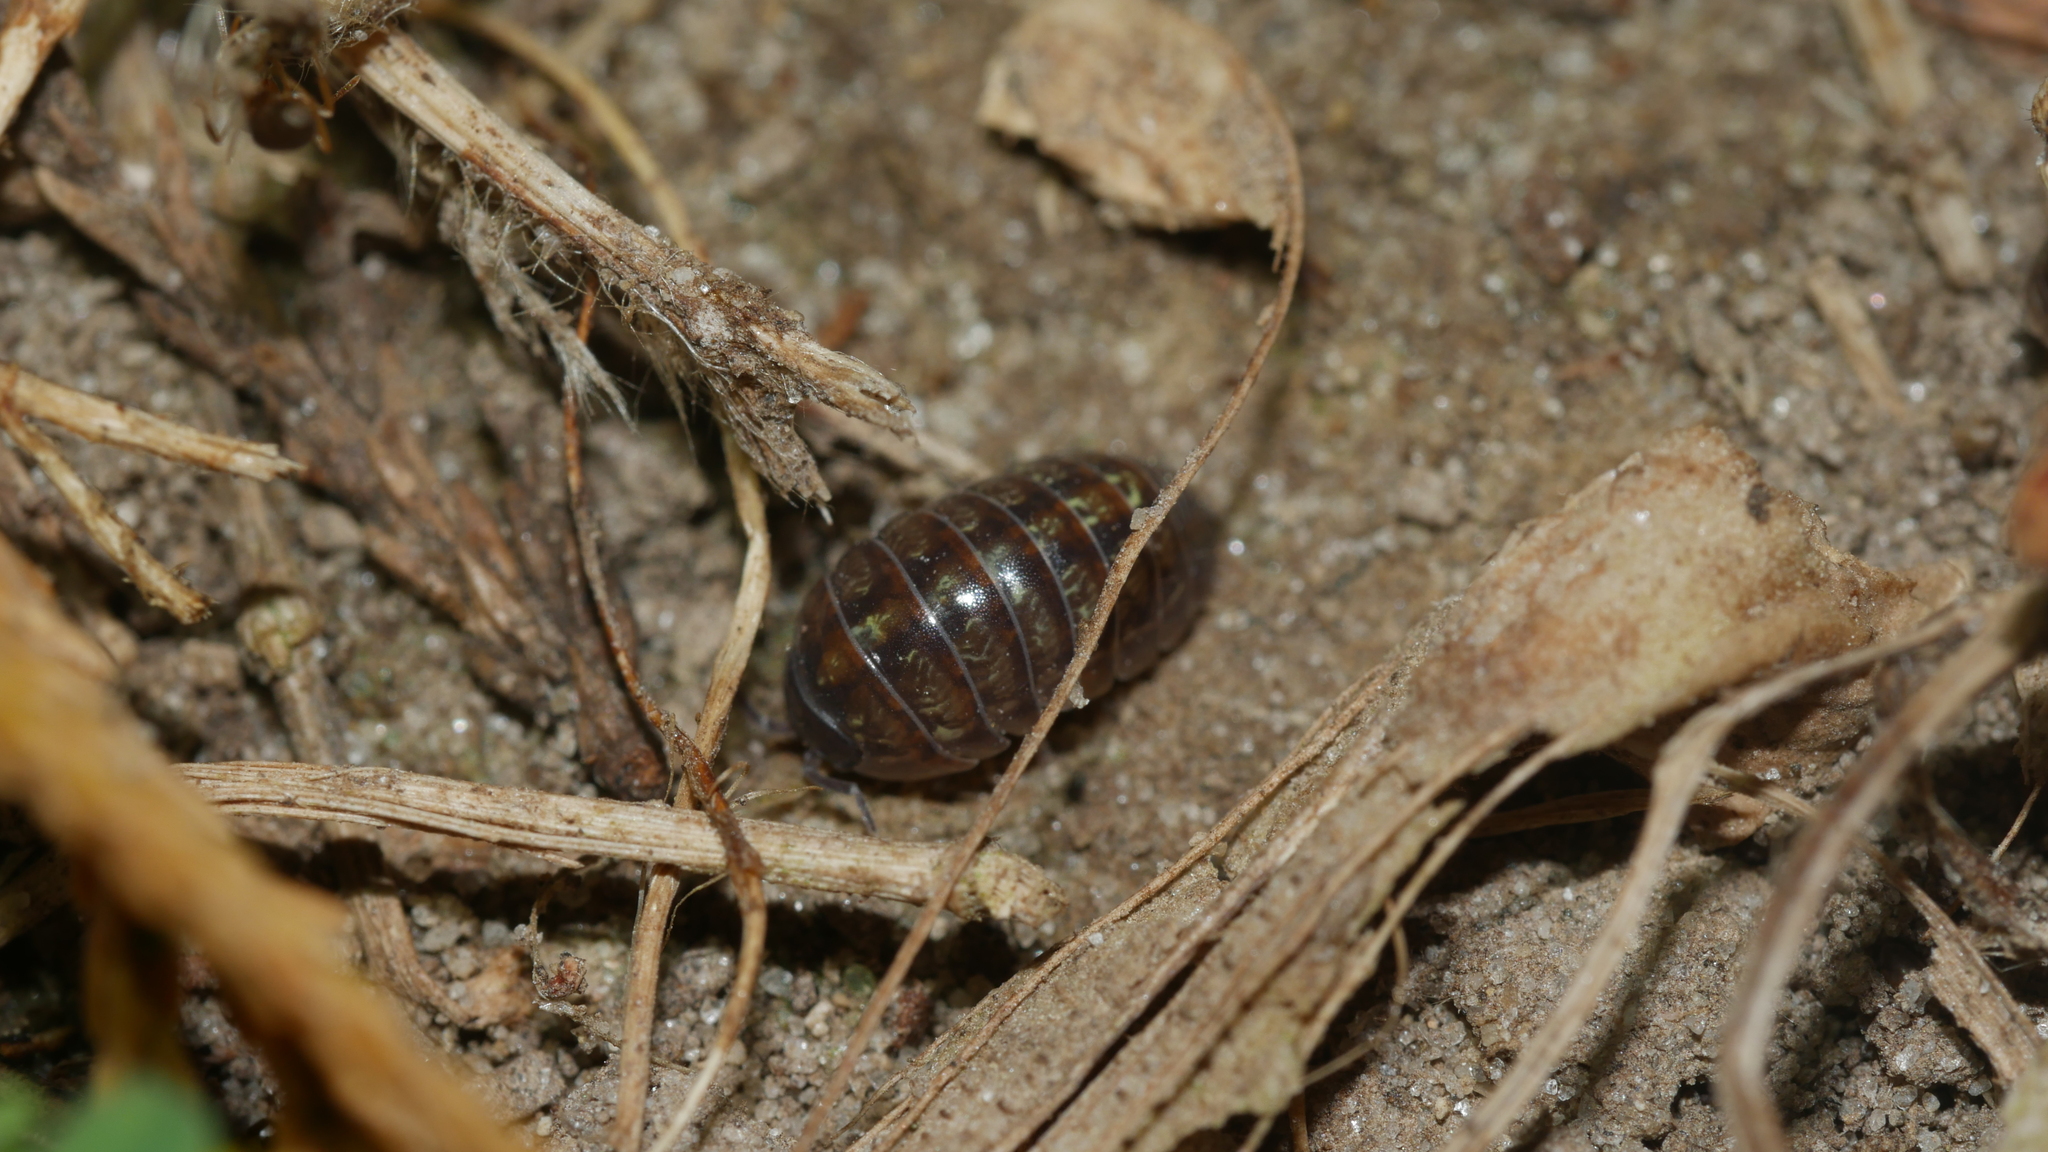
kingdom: Animalia
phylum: Arthropoda
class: Malacostraca
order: Isopoda
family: Armadillidiidae
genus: Armadillidium
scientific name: Armadillidium vulgare
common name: Common pill woodlouse
